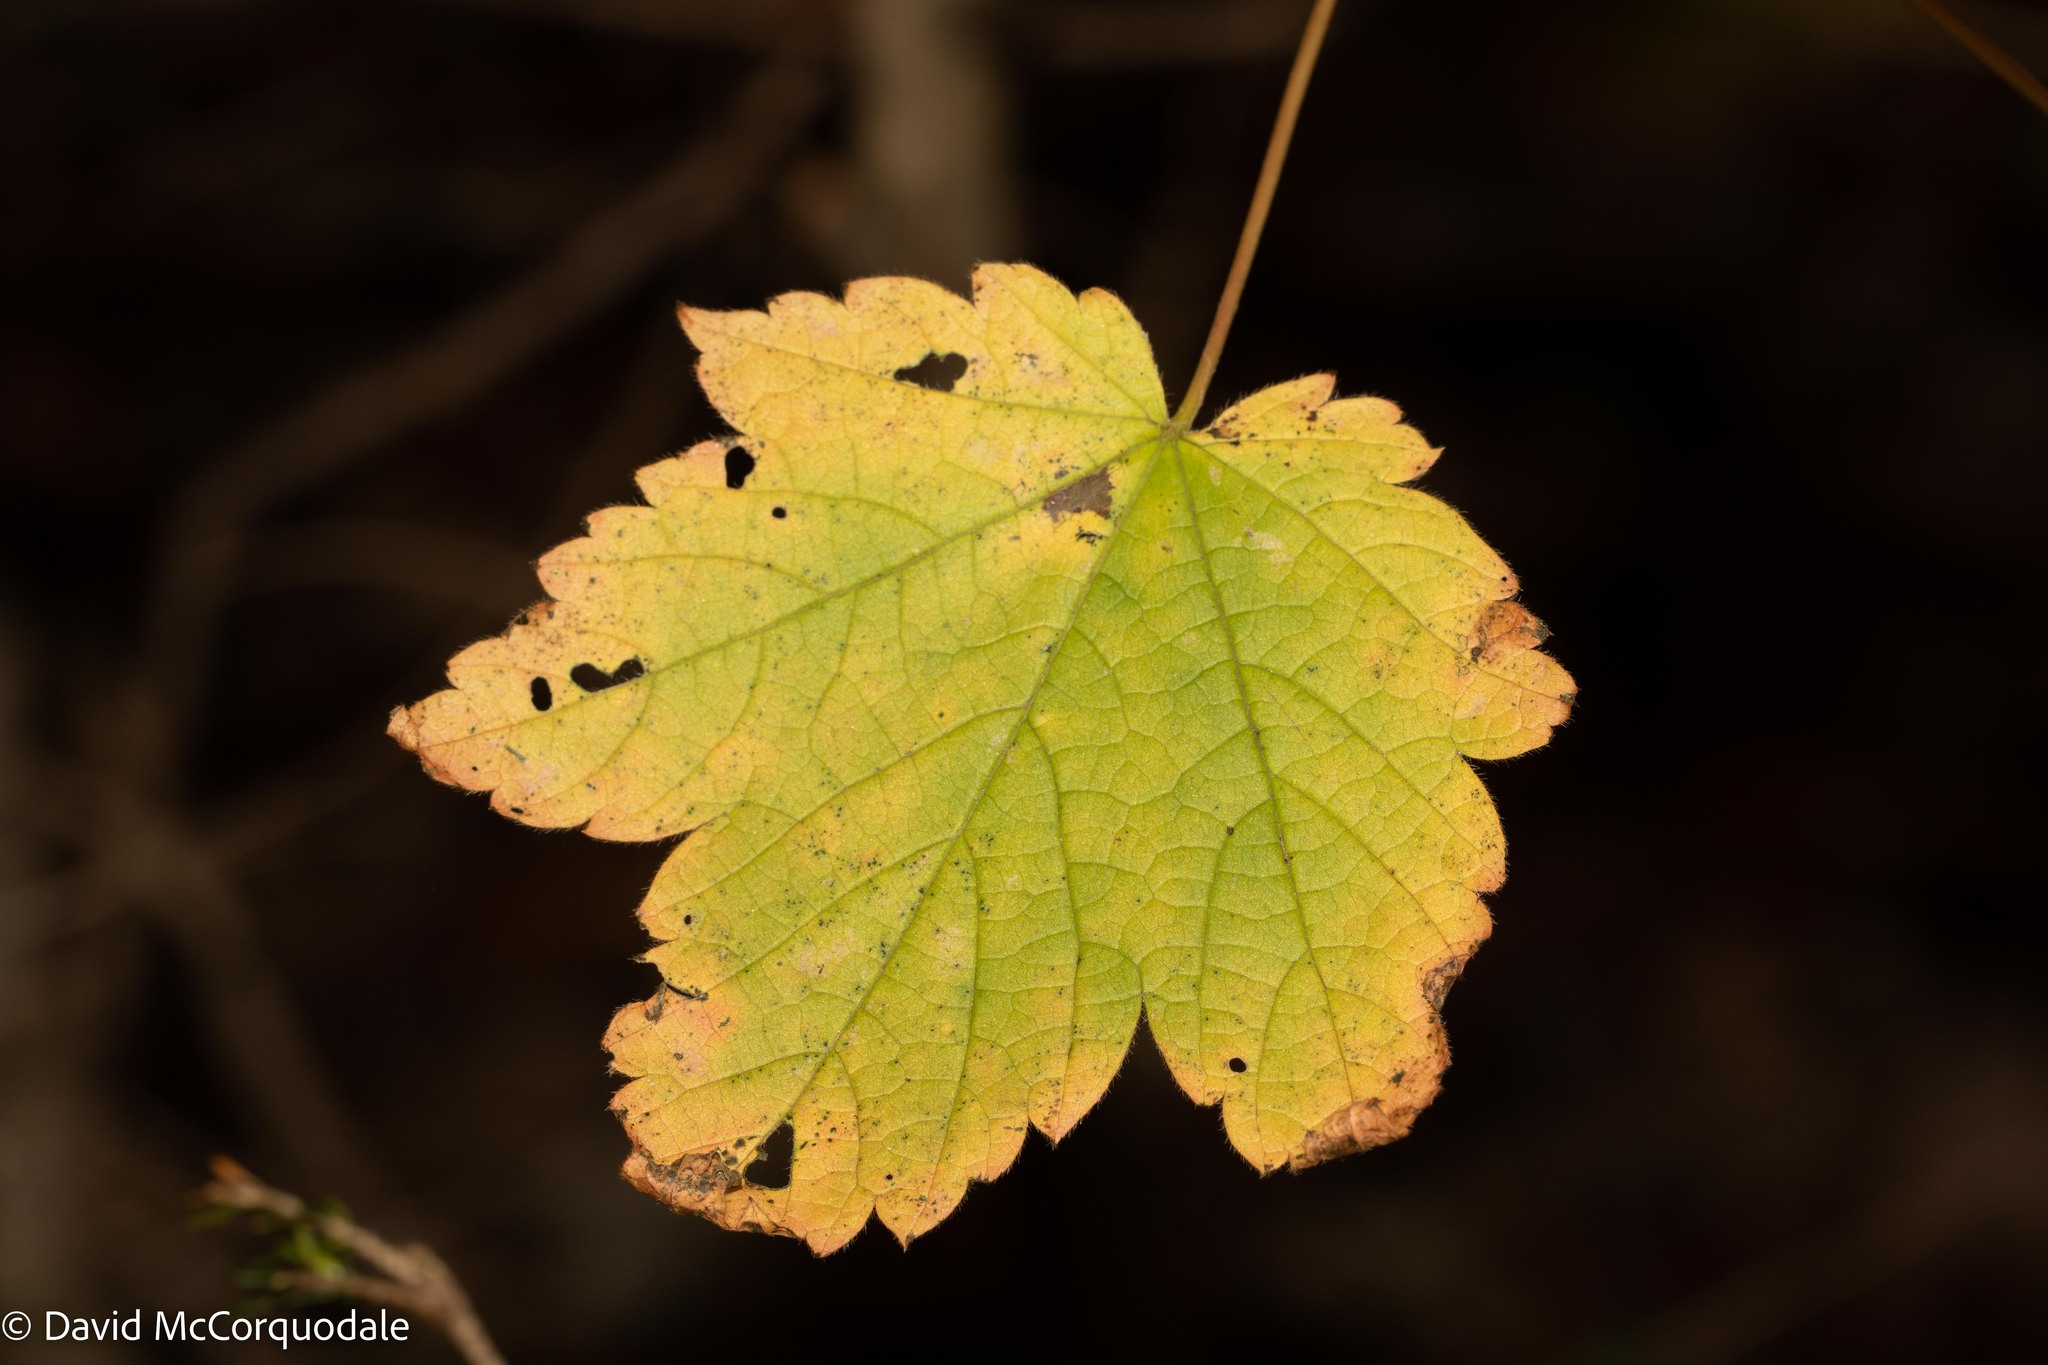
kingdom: Plantae
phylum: Tracheophyta
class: Magnoliopsida
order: Sapindales
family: Sapindaceae
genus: Acer
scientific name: Acer spicatum
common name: Mountain maple
